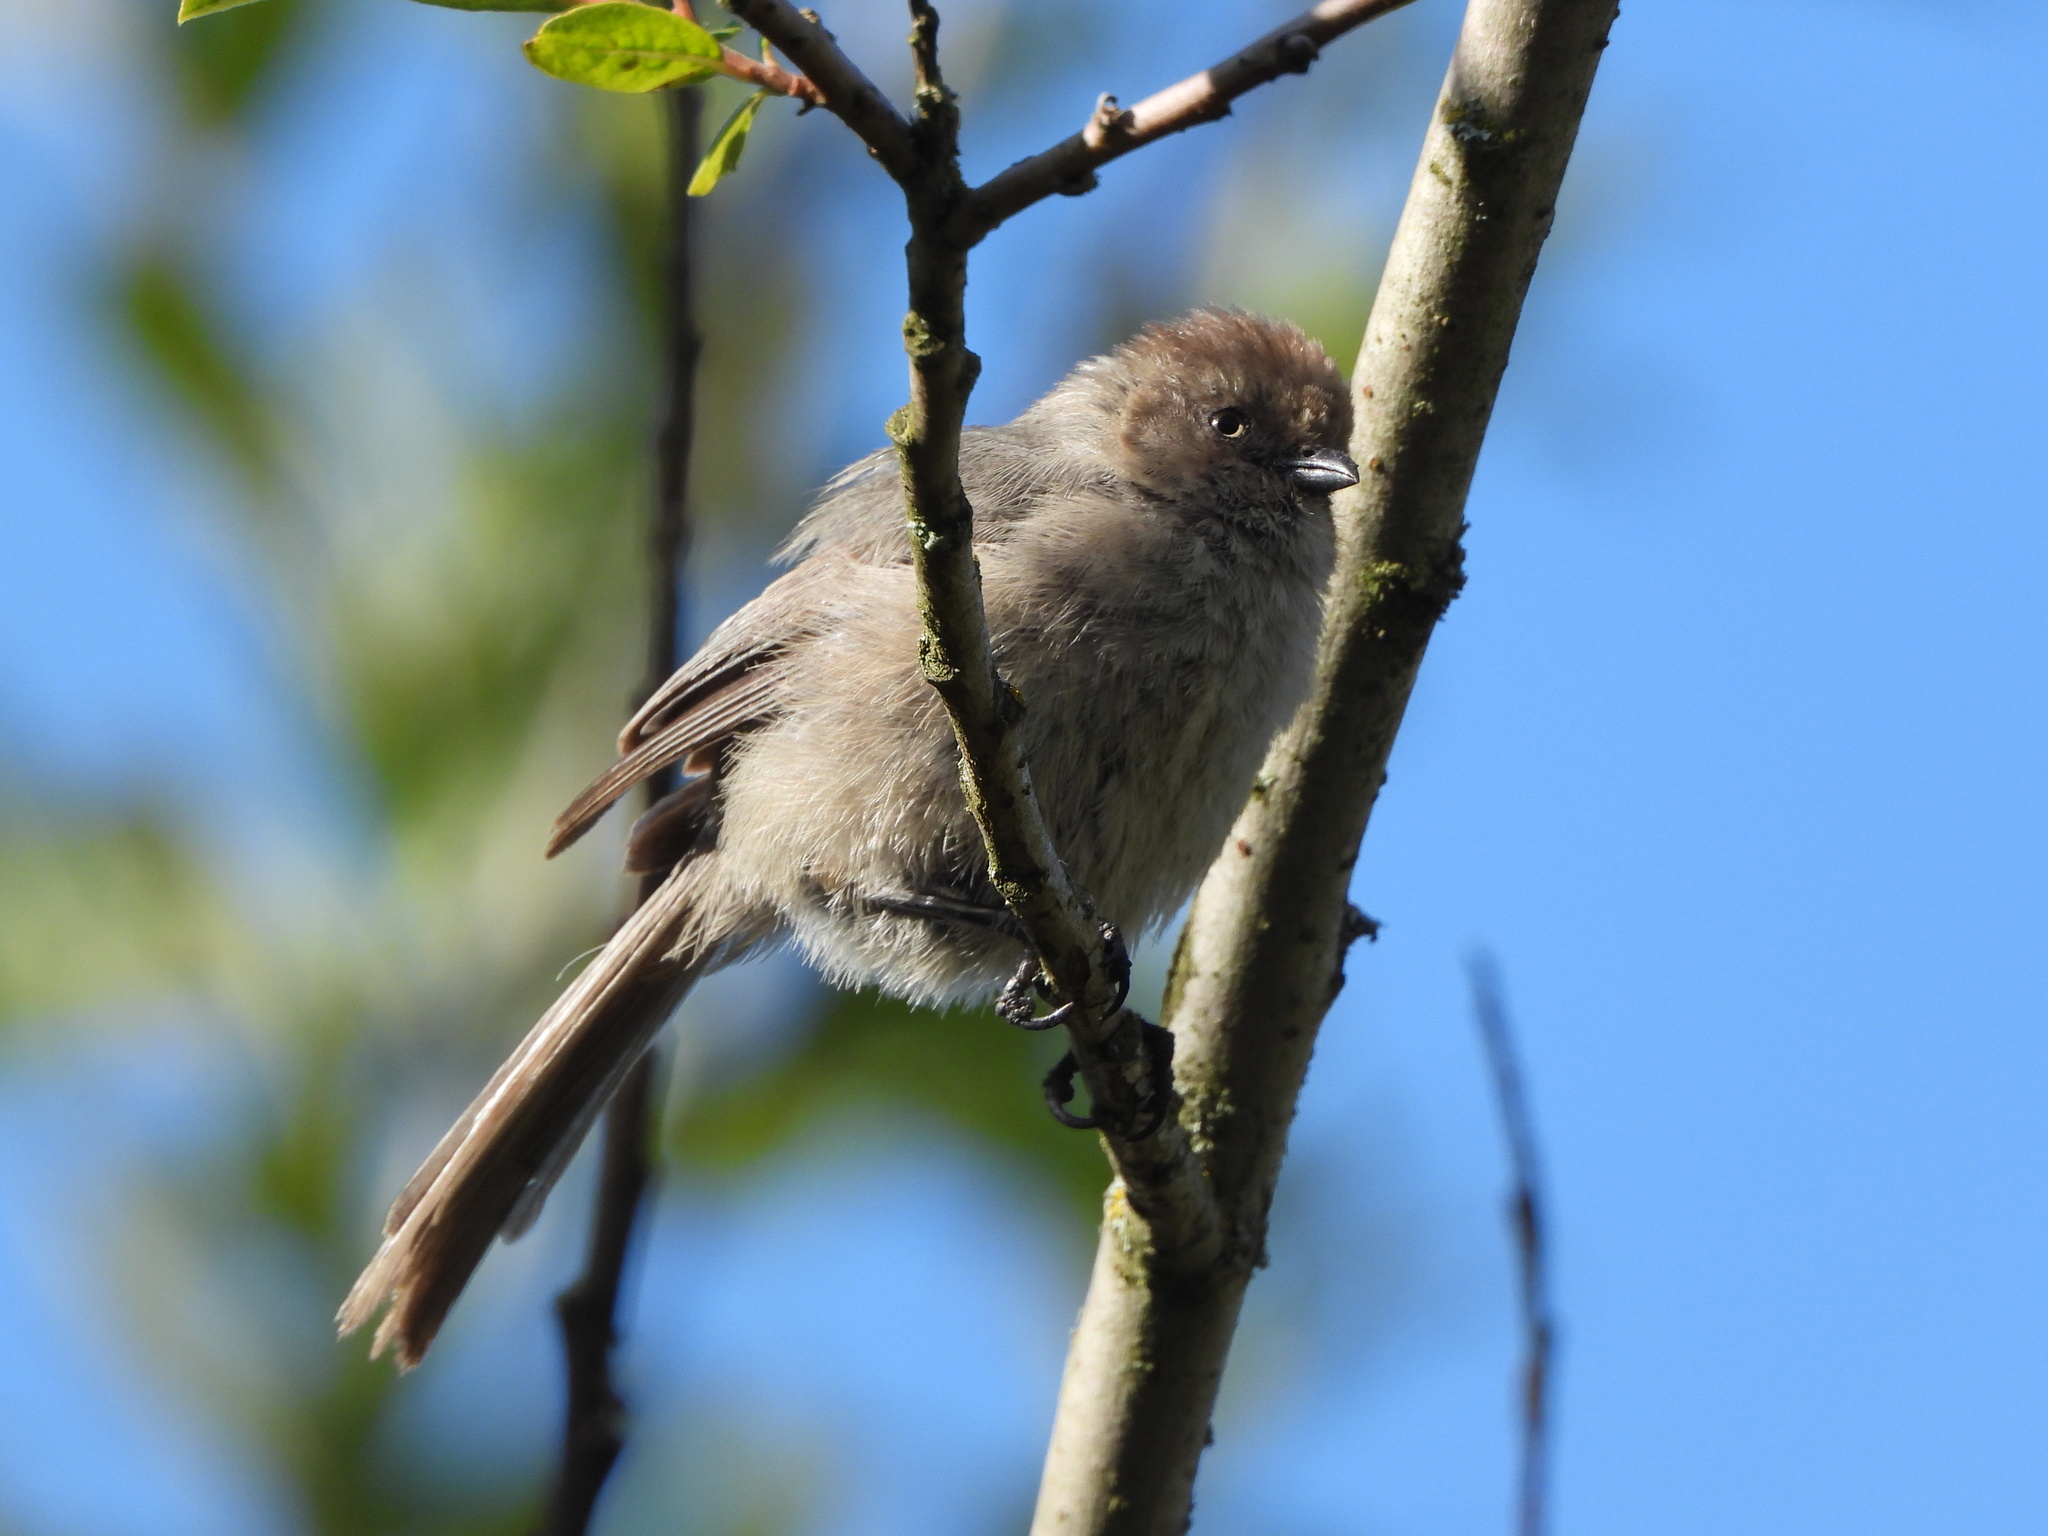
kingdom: Animalia
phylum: Chordata
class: Aves
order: Passeriformes
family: Aegithalidae
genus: Psaltriparus
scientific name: Psaltriparus minimus
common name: American bushtit
